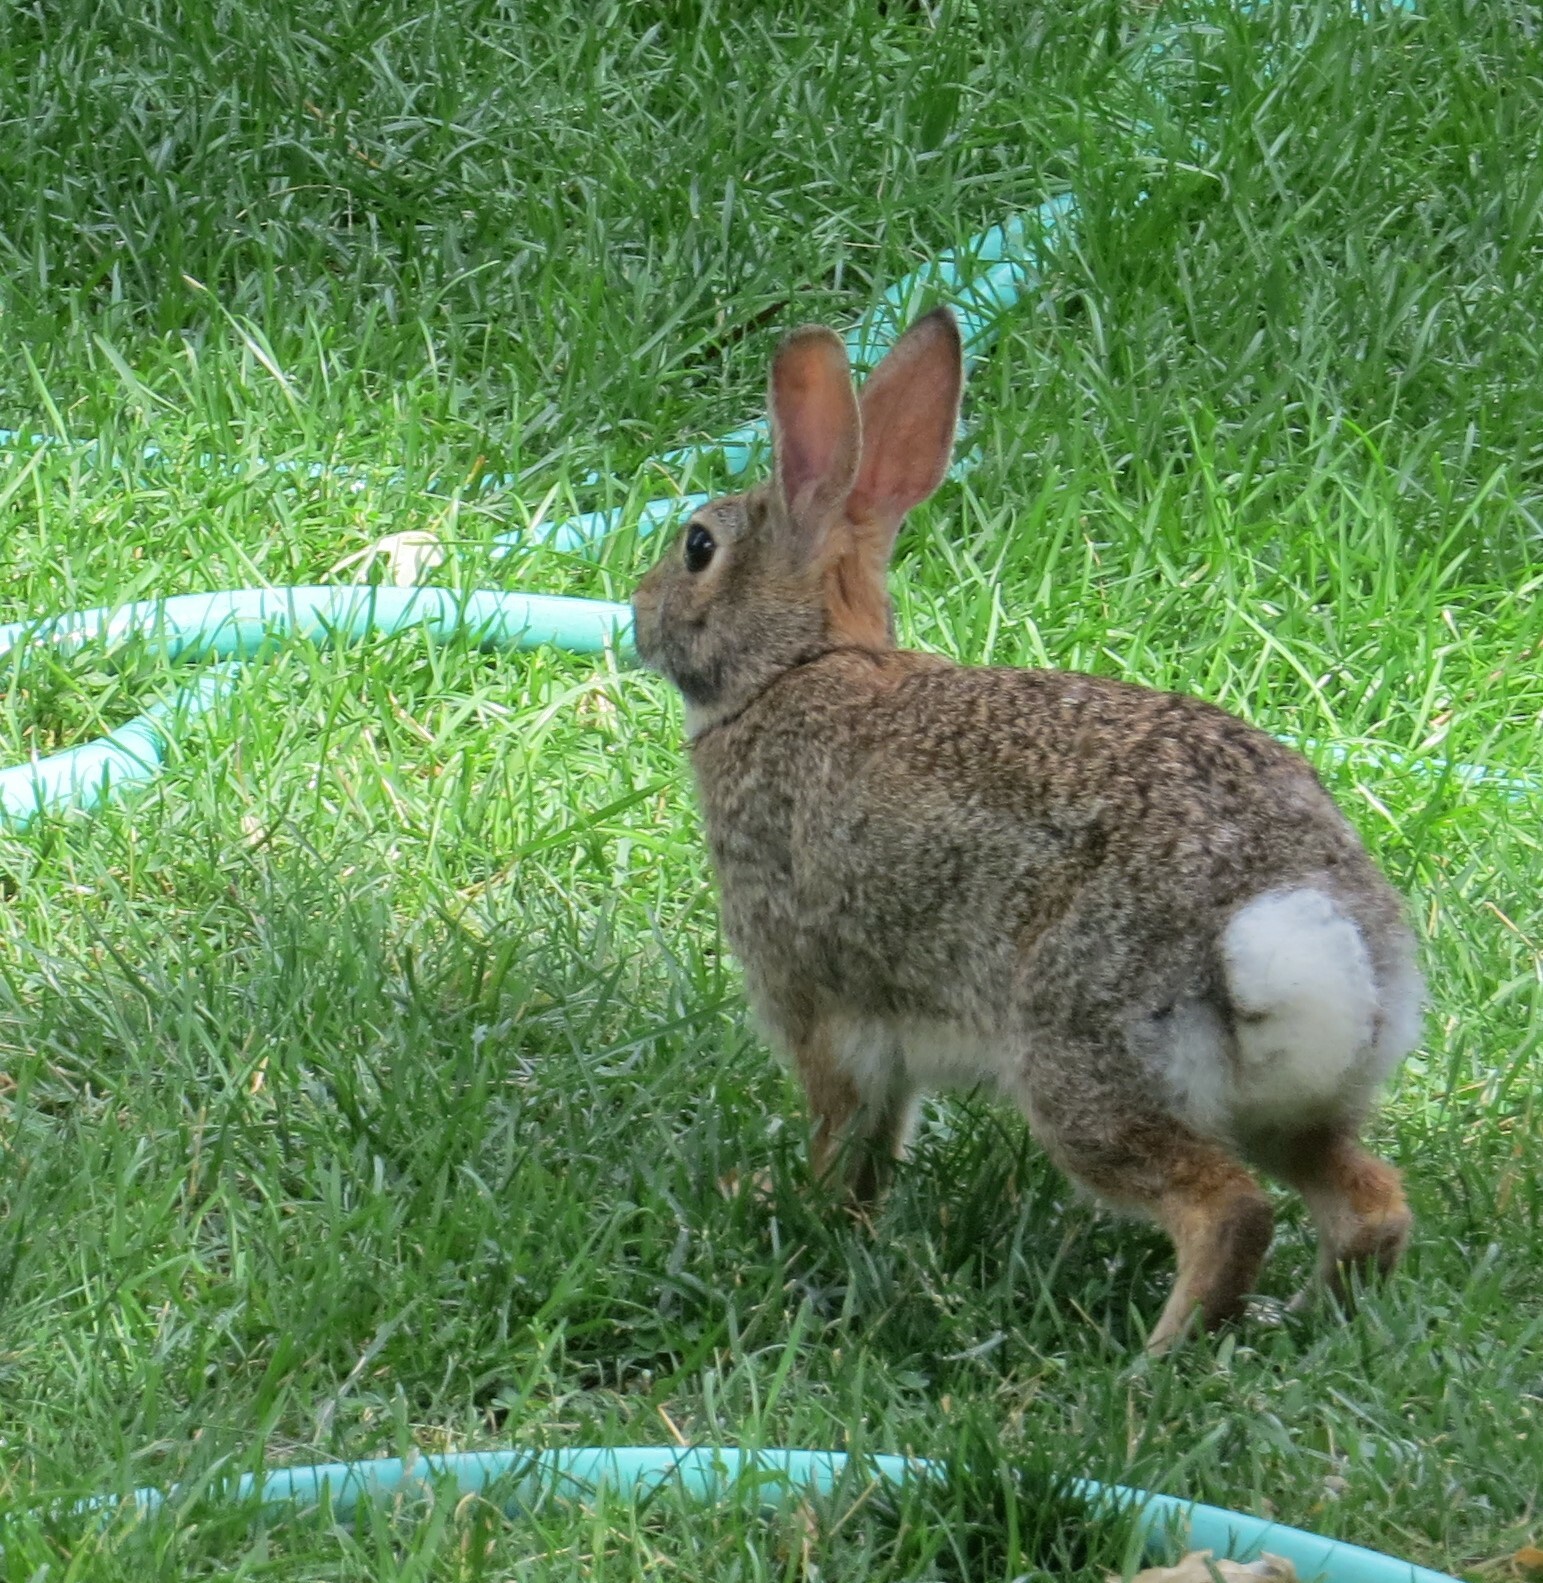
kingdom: Animalia
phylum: Chordata
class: Mammalia
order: Lagomorpha
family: Leporidae
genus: Sylvilagus
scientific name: Sylvilagus floridanus
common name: Eastern cottontail
